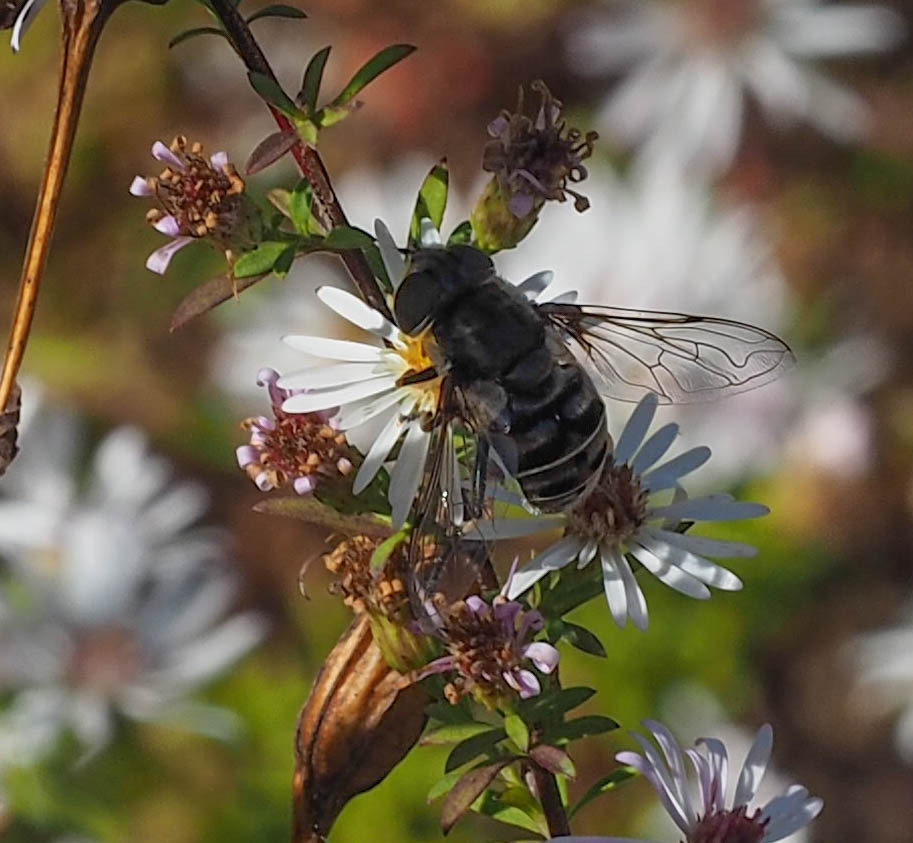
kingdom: Animalia
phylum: Arthropoda
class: Insecta
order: Diptera
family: Syrphidae
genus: Eristalis
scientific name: Eristalis dimidiata
